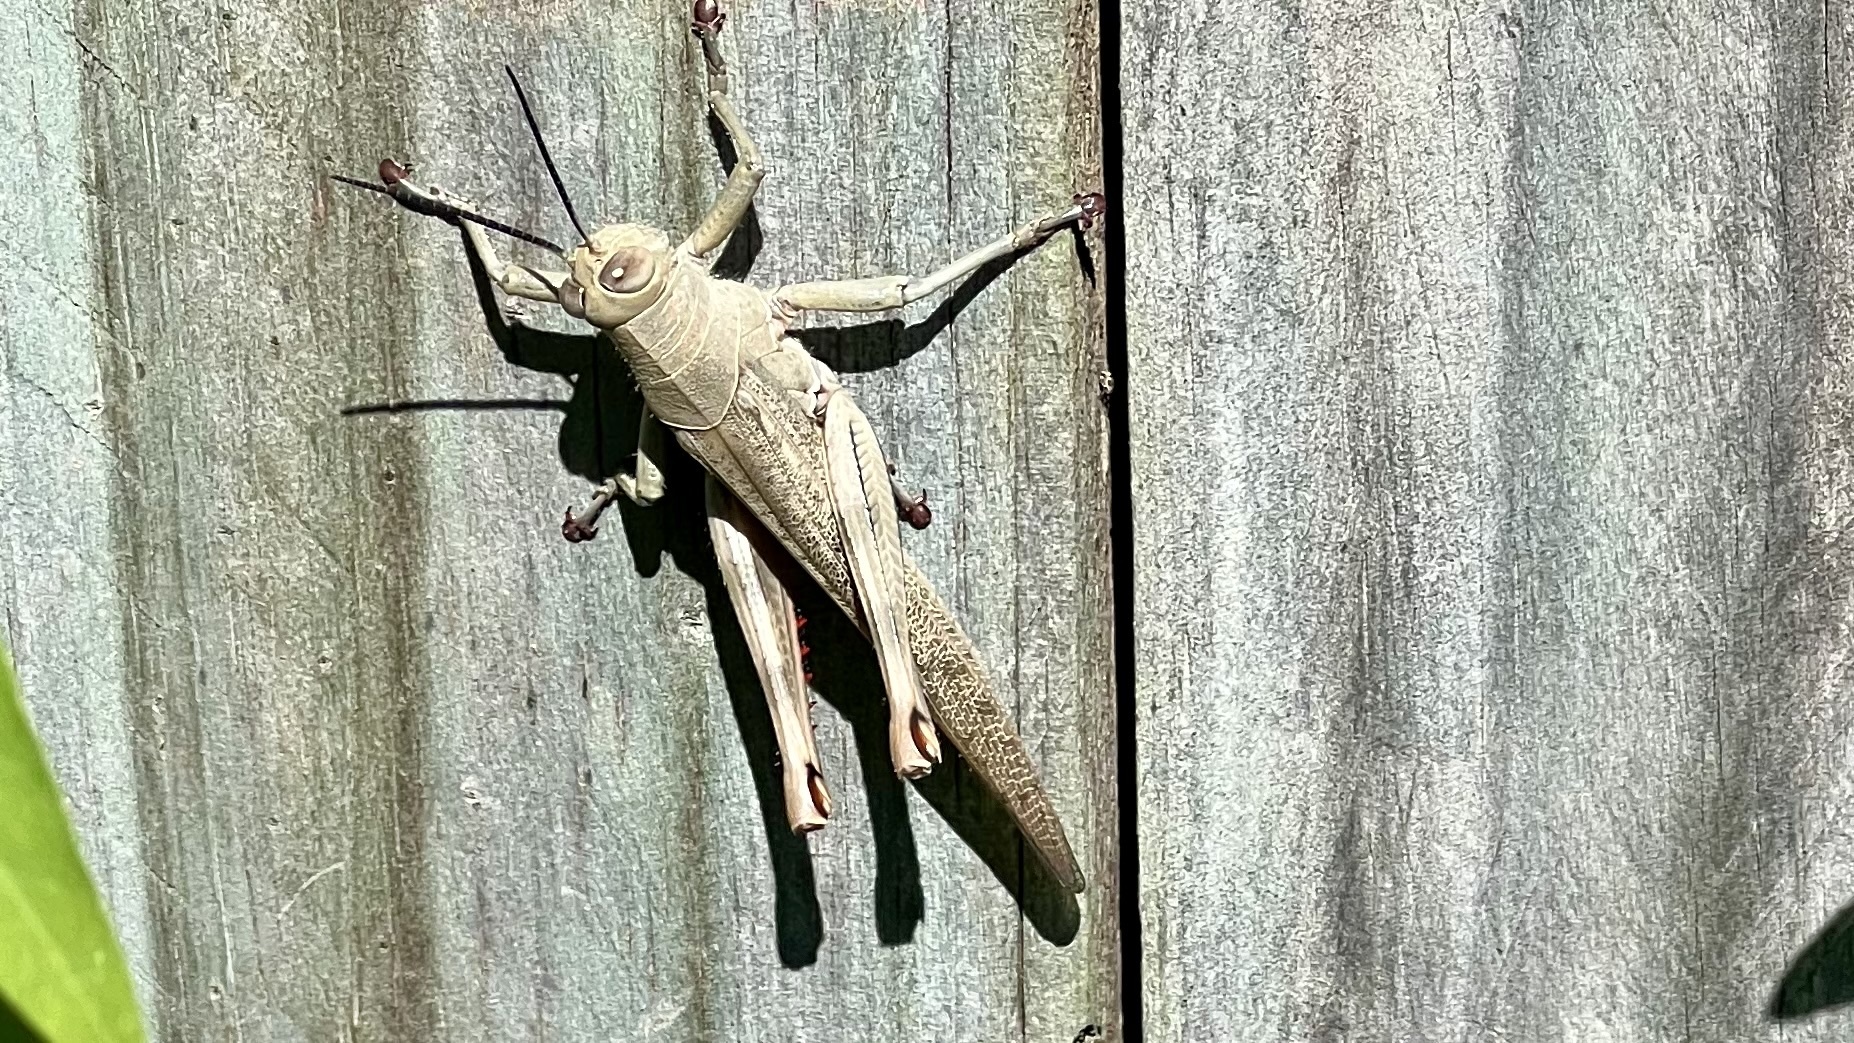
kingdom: Animalia
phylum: Arthropoda
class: Insecta
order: Orthoptera
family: Acrididae
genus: Valanga
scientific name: Valanga irregularis
